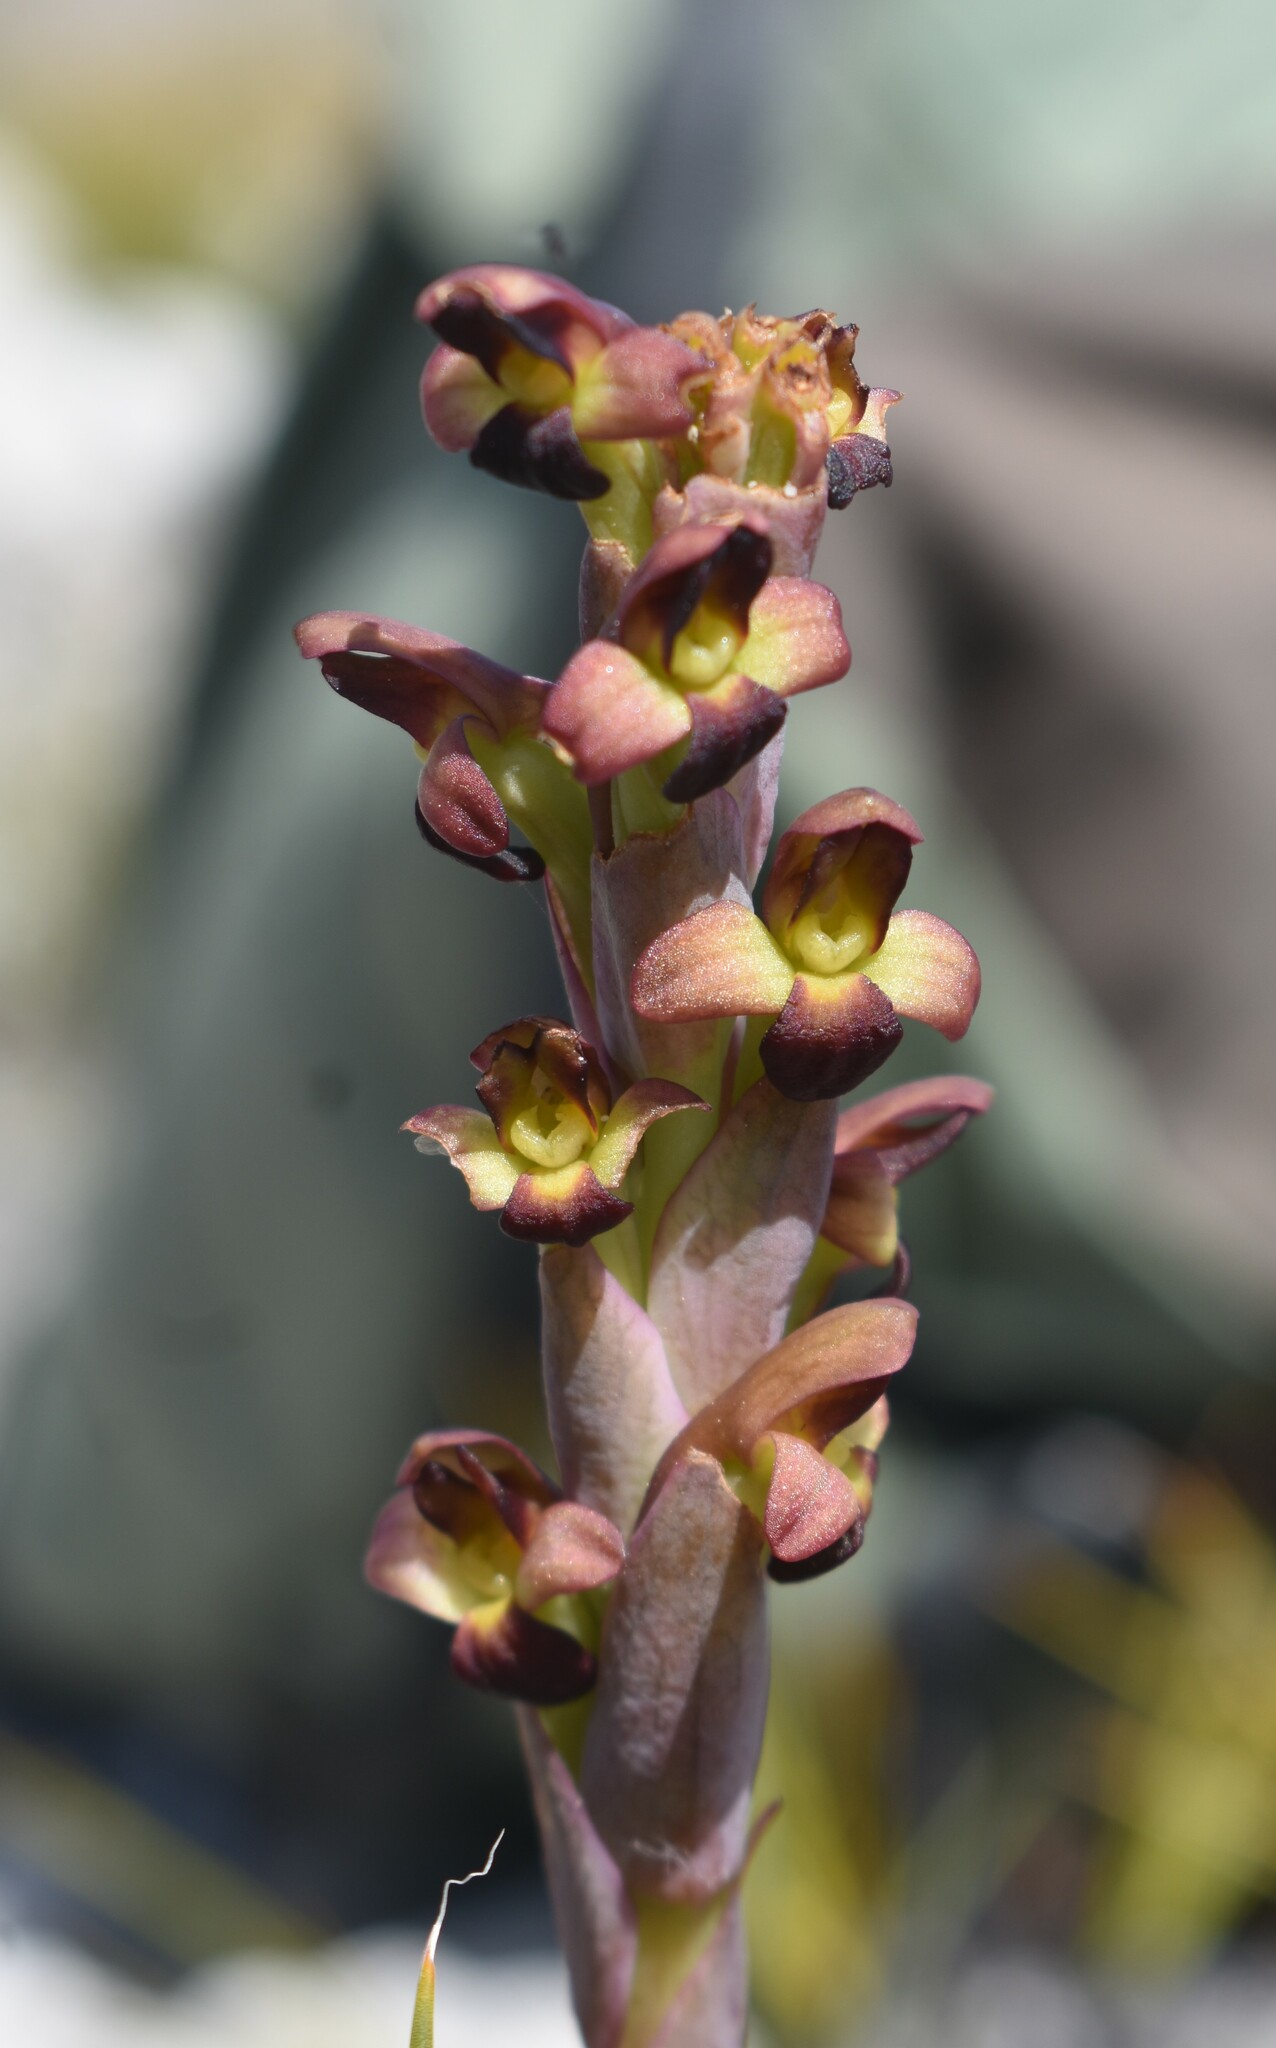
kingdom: Plantae
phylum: Tracheophyta
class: Liliopsida
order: Asparagales
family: Orchidaceae
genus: Disa
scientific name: Disa bolusiana
